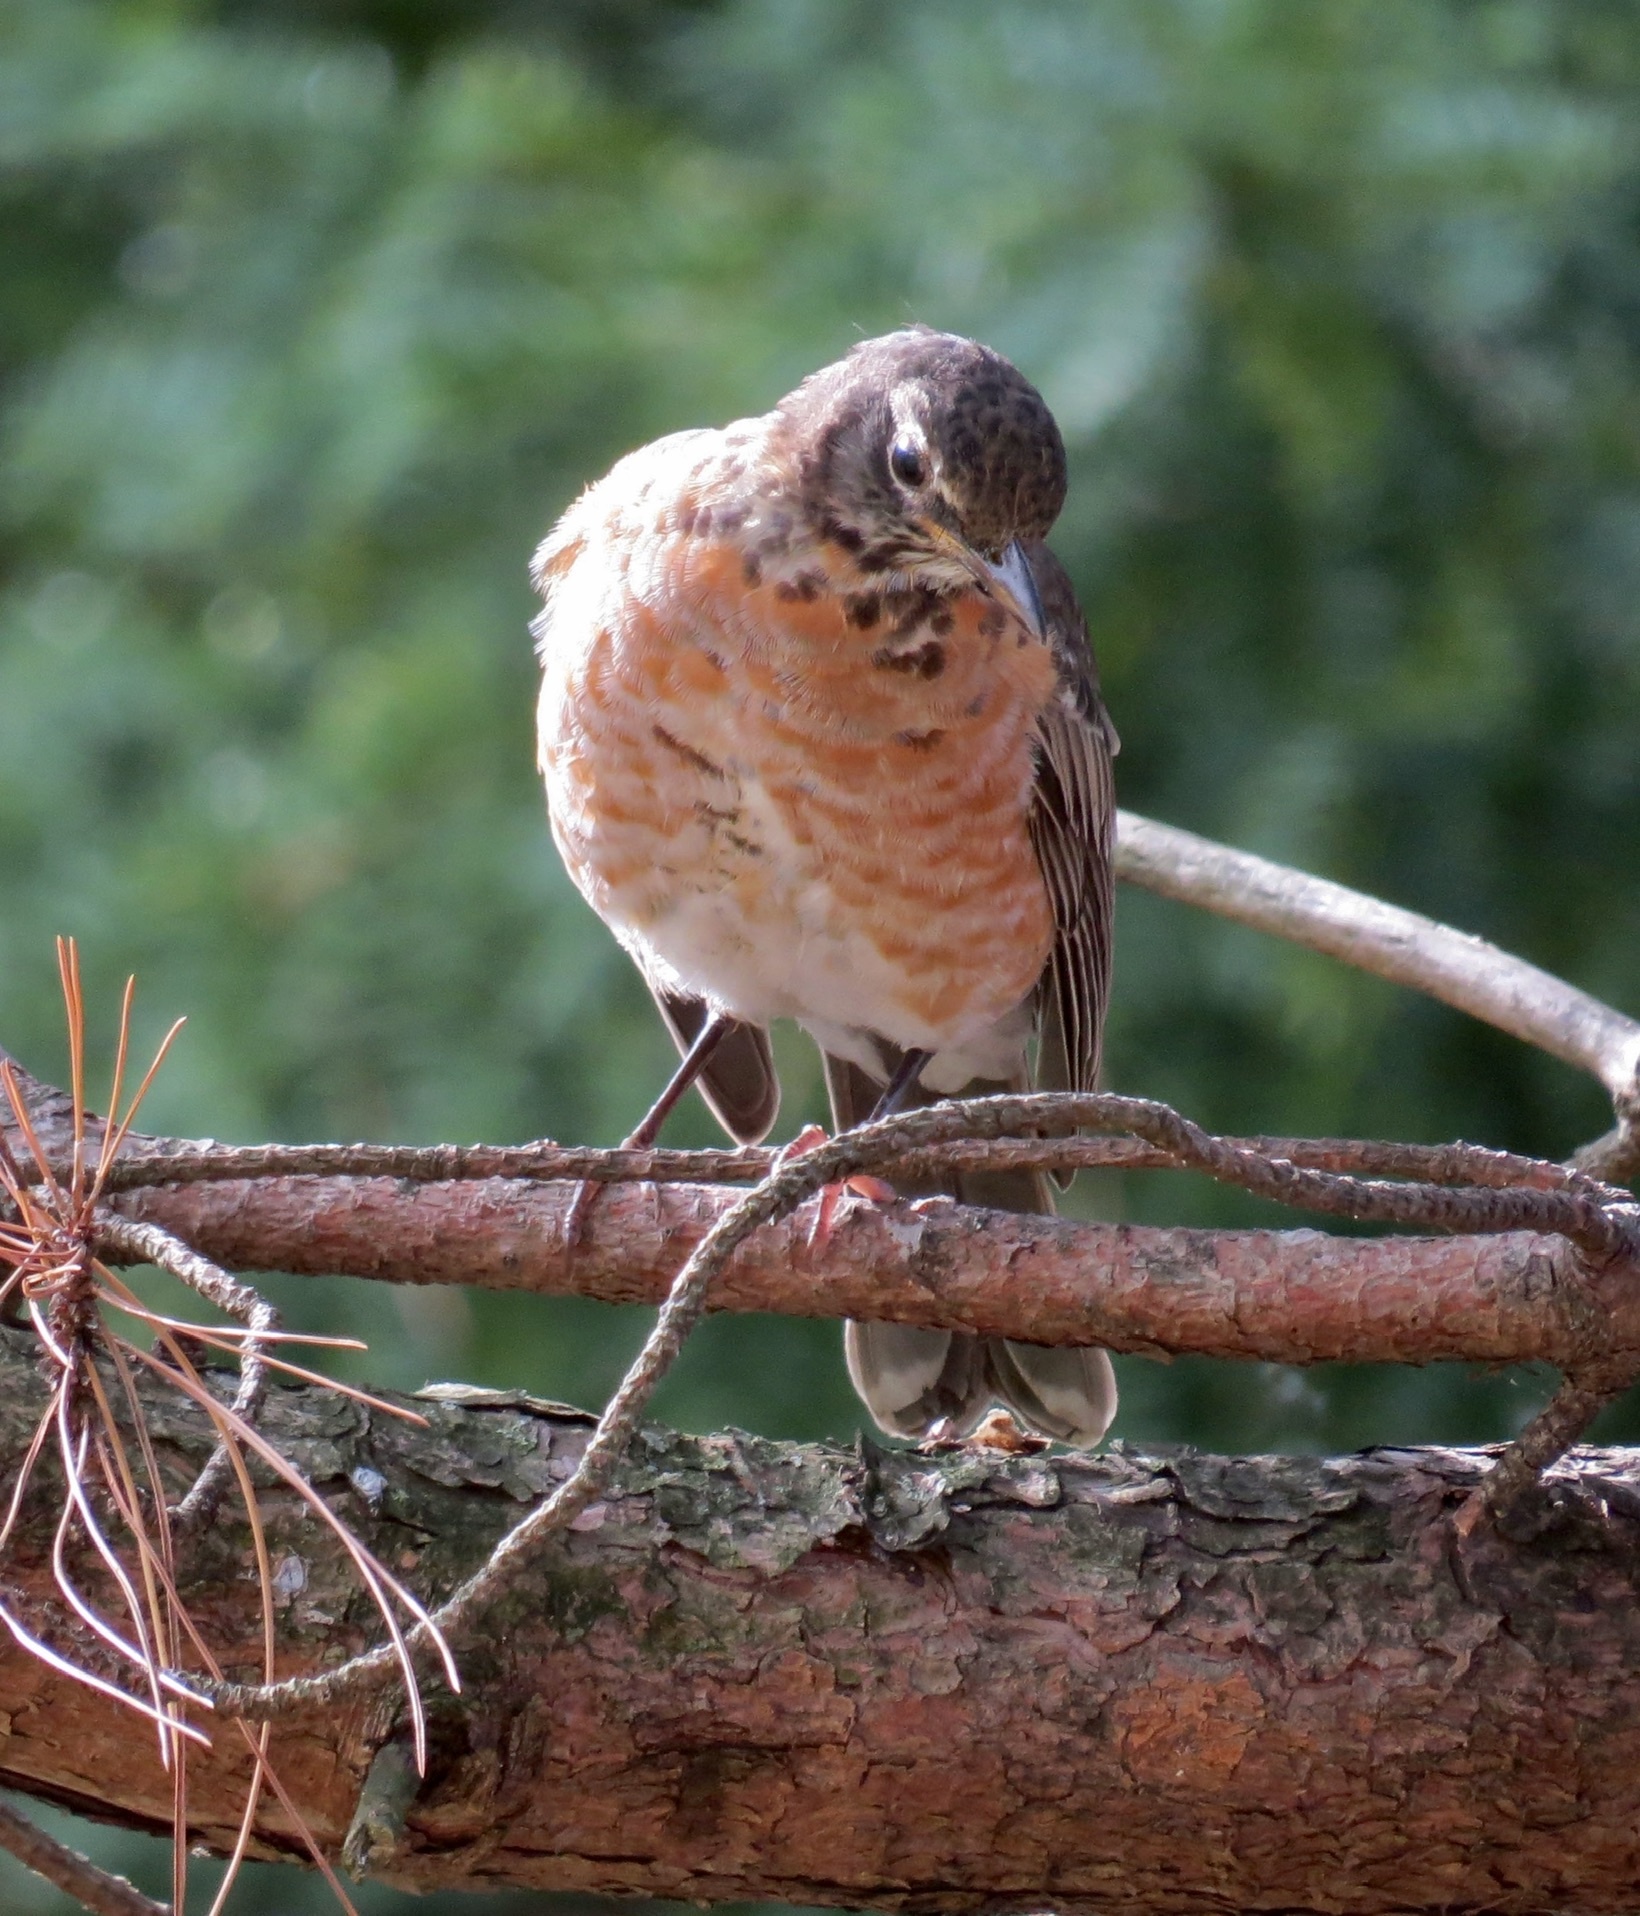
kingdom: Animalia
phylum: Chordata
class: Aves
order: Passeriformes
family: Turdidae
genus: Turdus
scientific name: Turdus migratorius
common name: American robin
